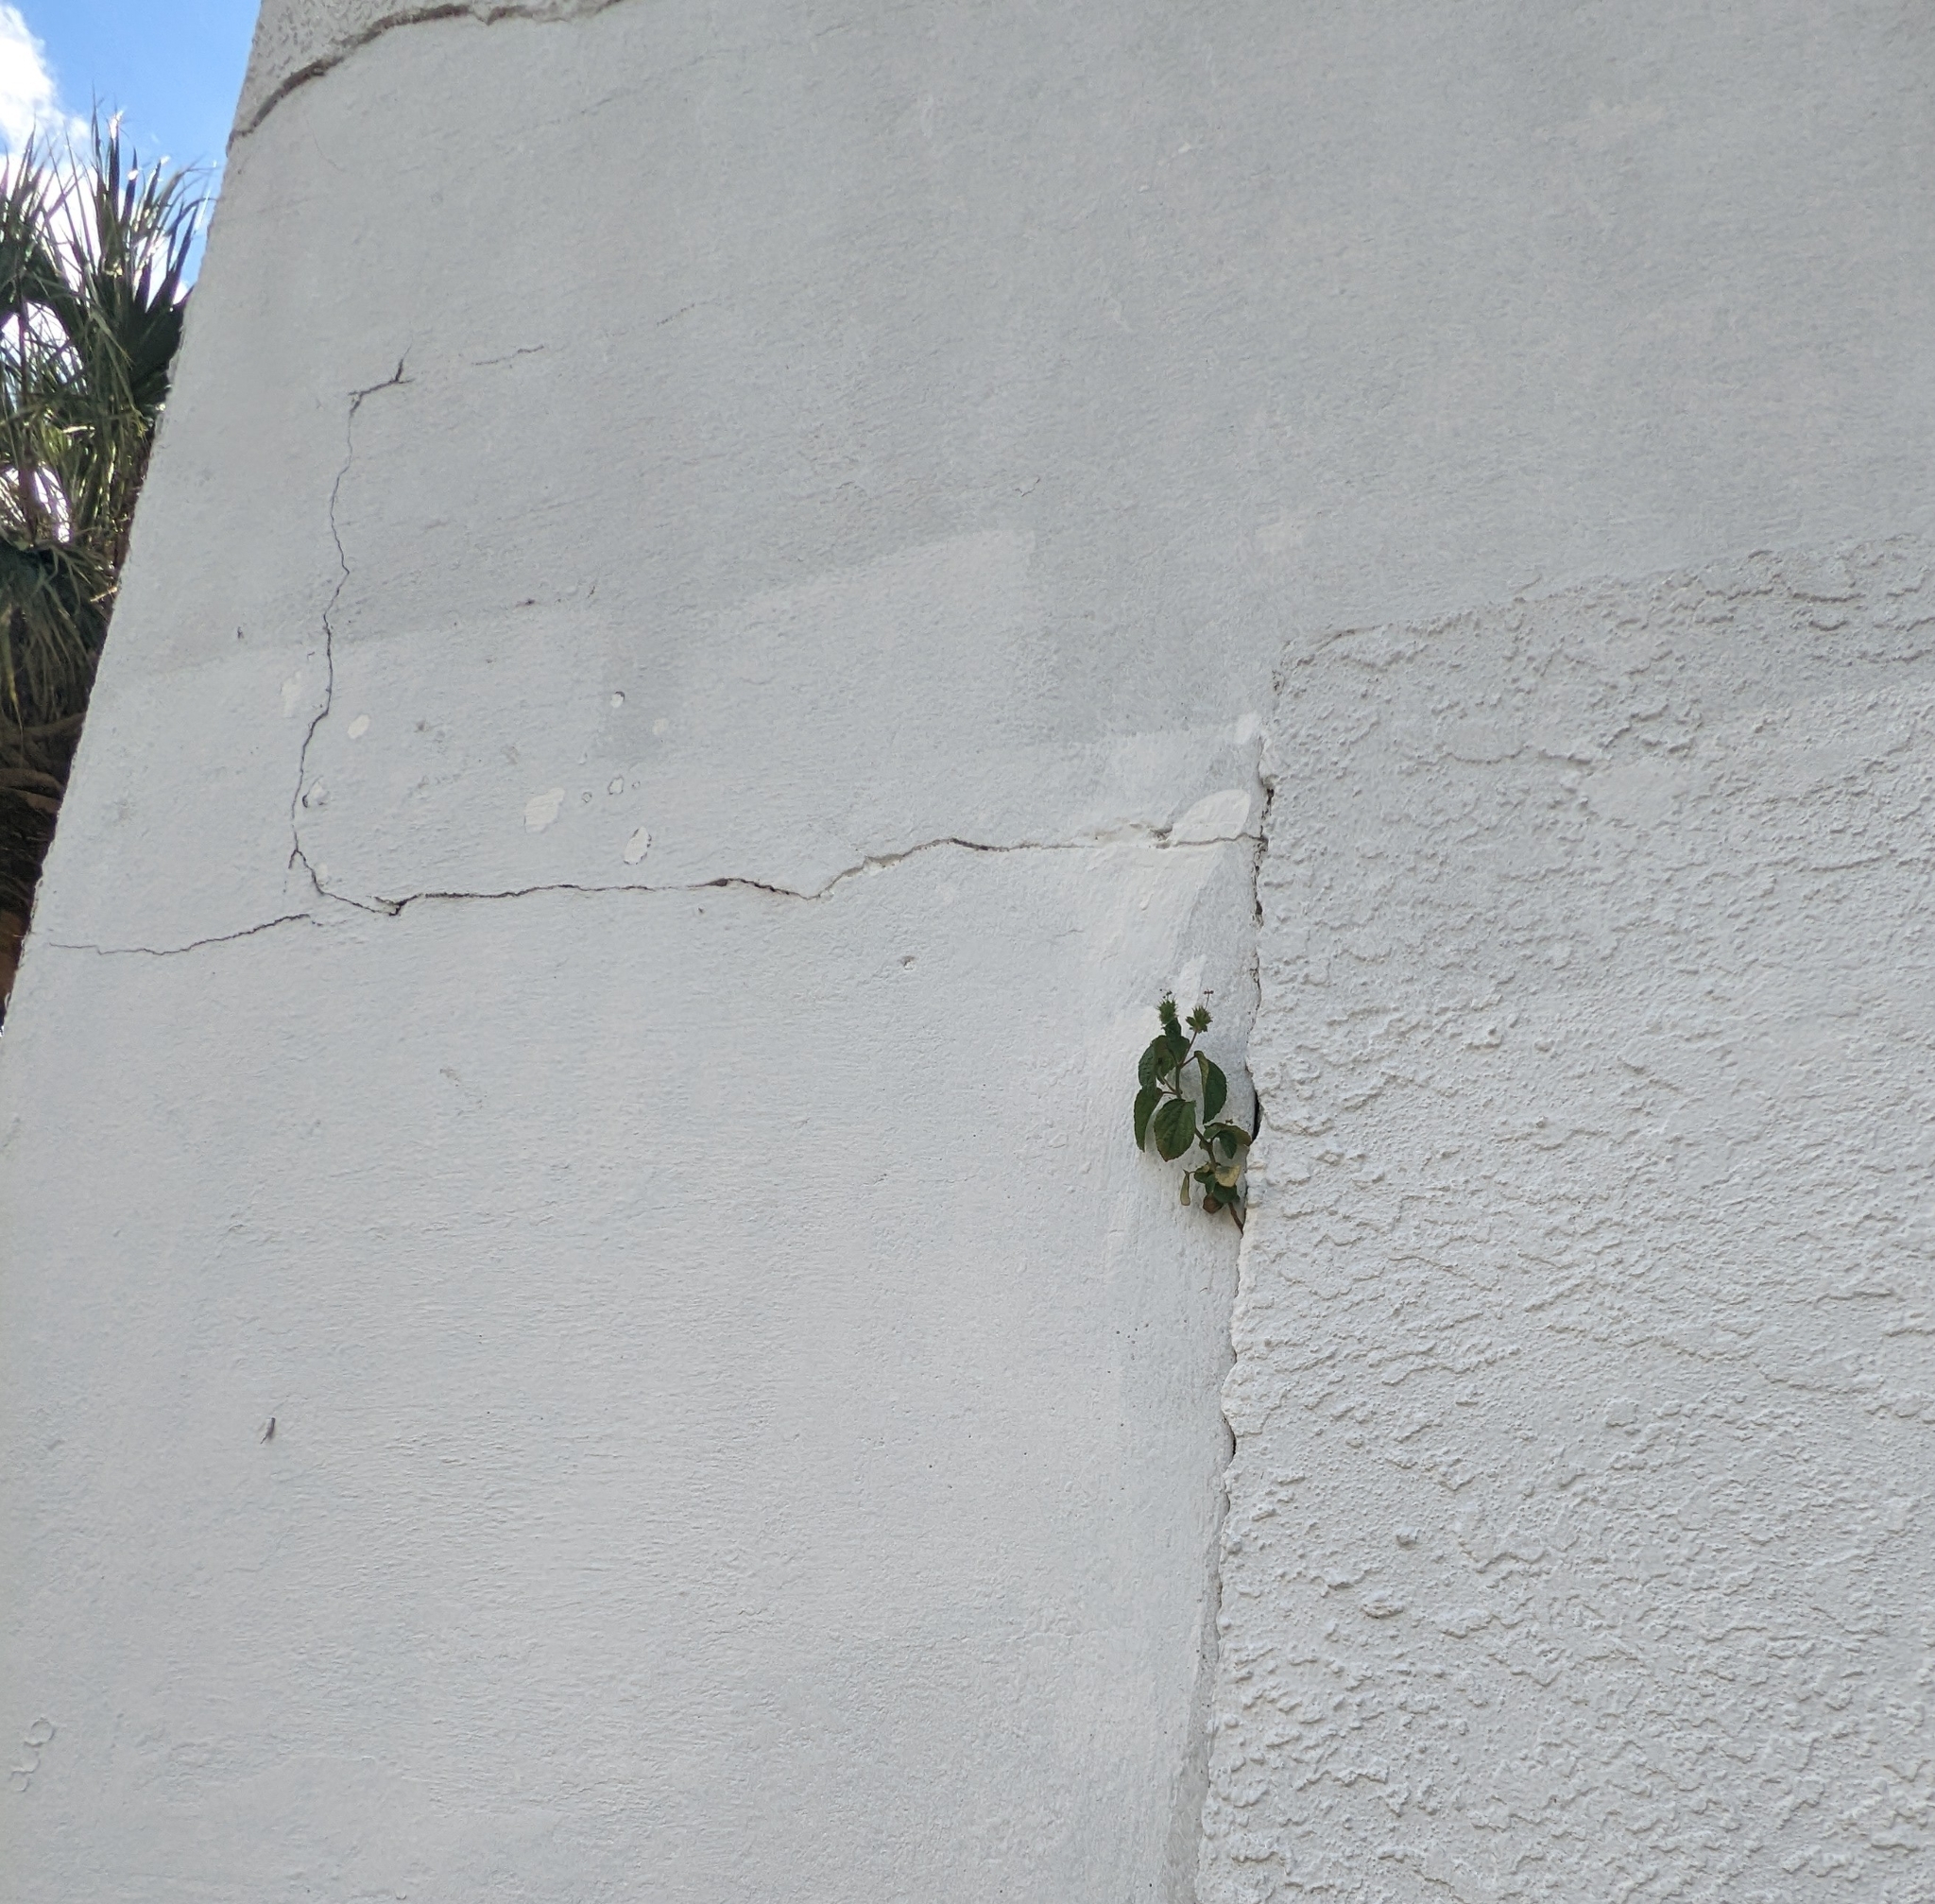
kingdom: Plantae
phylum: Tracheophyta
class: Magnoliopsida
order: Malpighiales
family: Euphorbiaceae
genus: Acalypha
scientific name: Acalypha arvensis
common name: Field copperleaf
